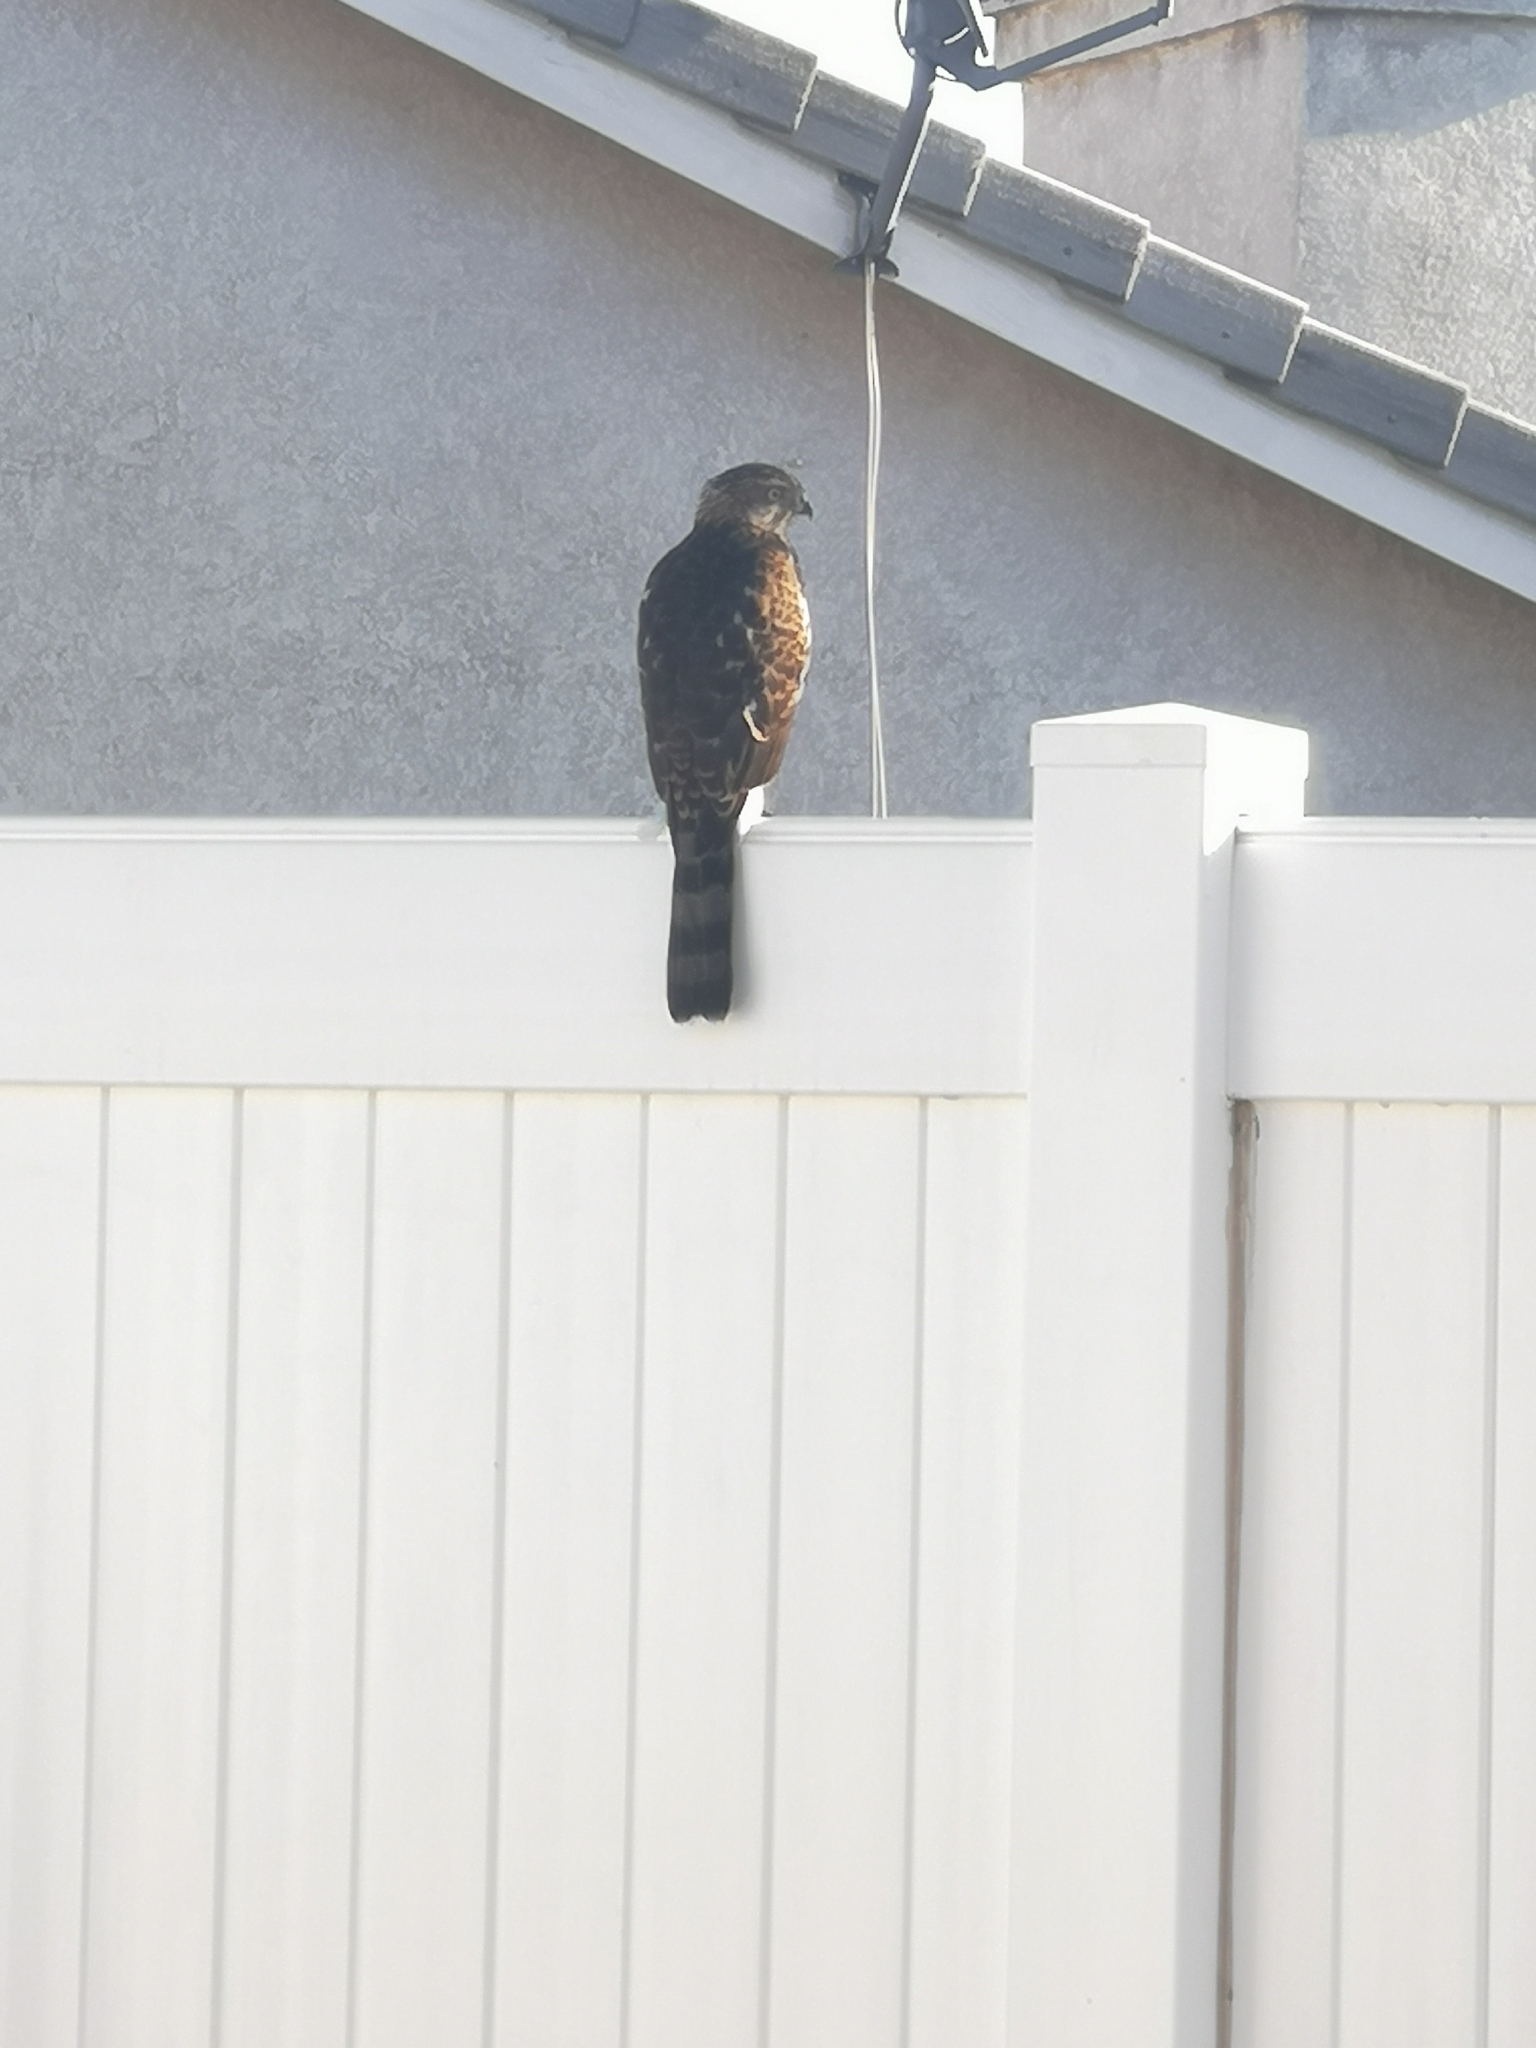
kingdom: Animalia
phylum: Chordata
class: Aves
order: Accipitriformes
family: Accipitridae
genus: Accipiter
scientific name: Accipiter cooperii
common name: Cooper's hawk
